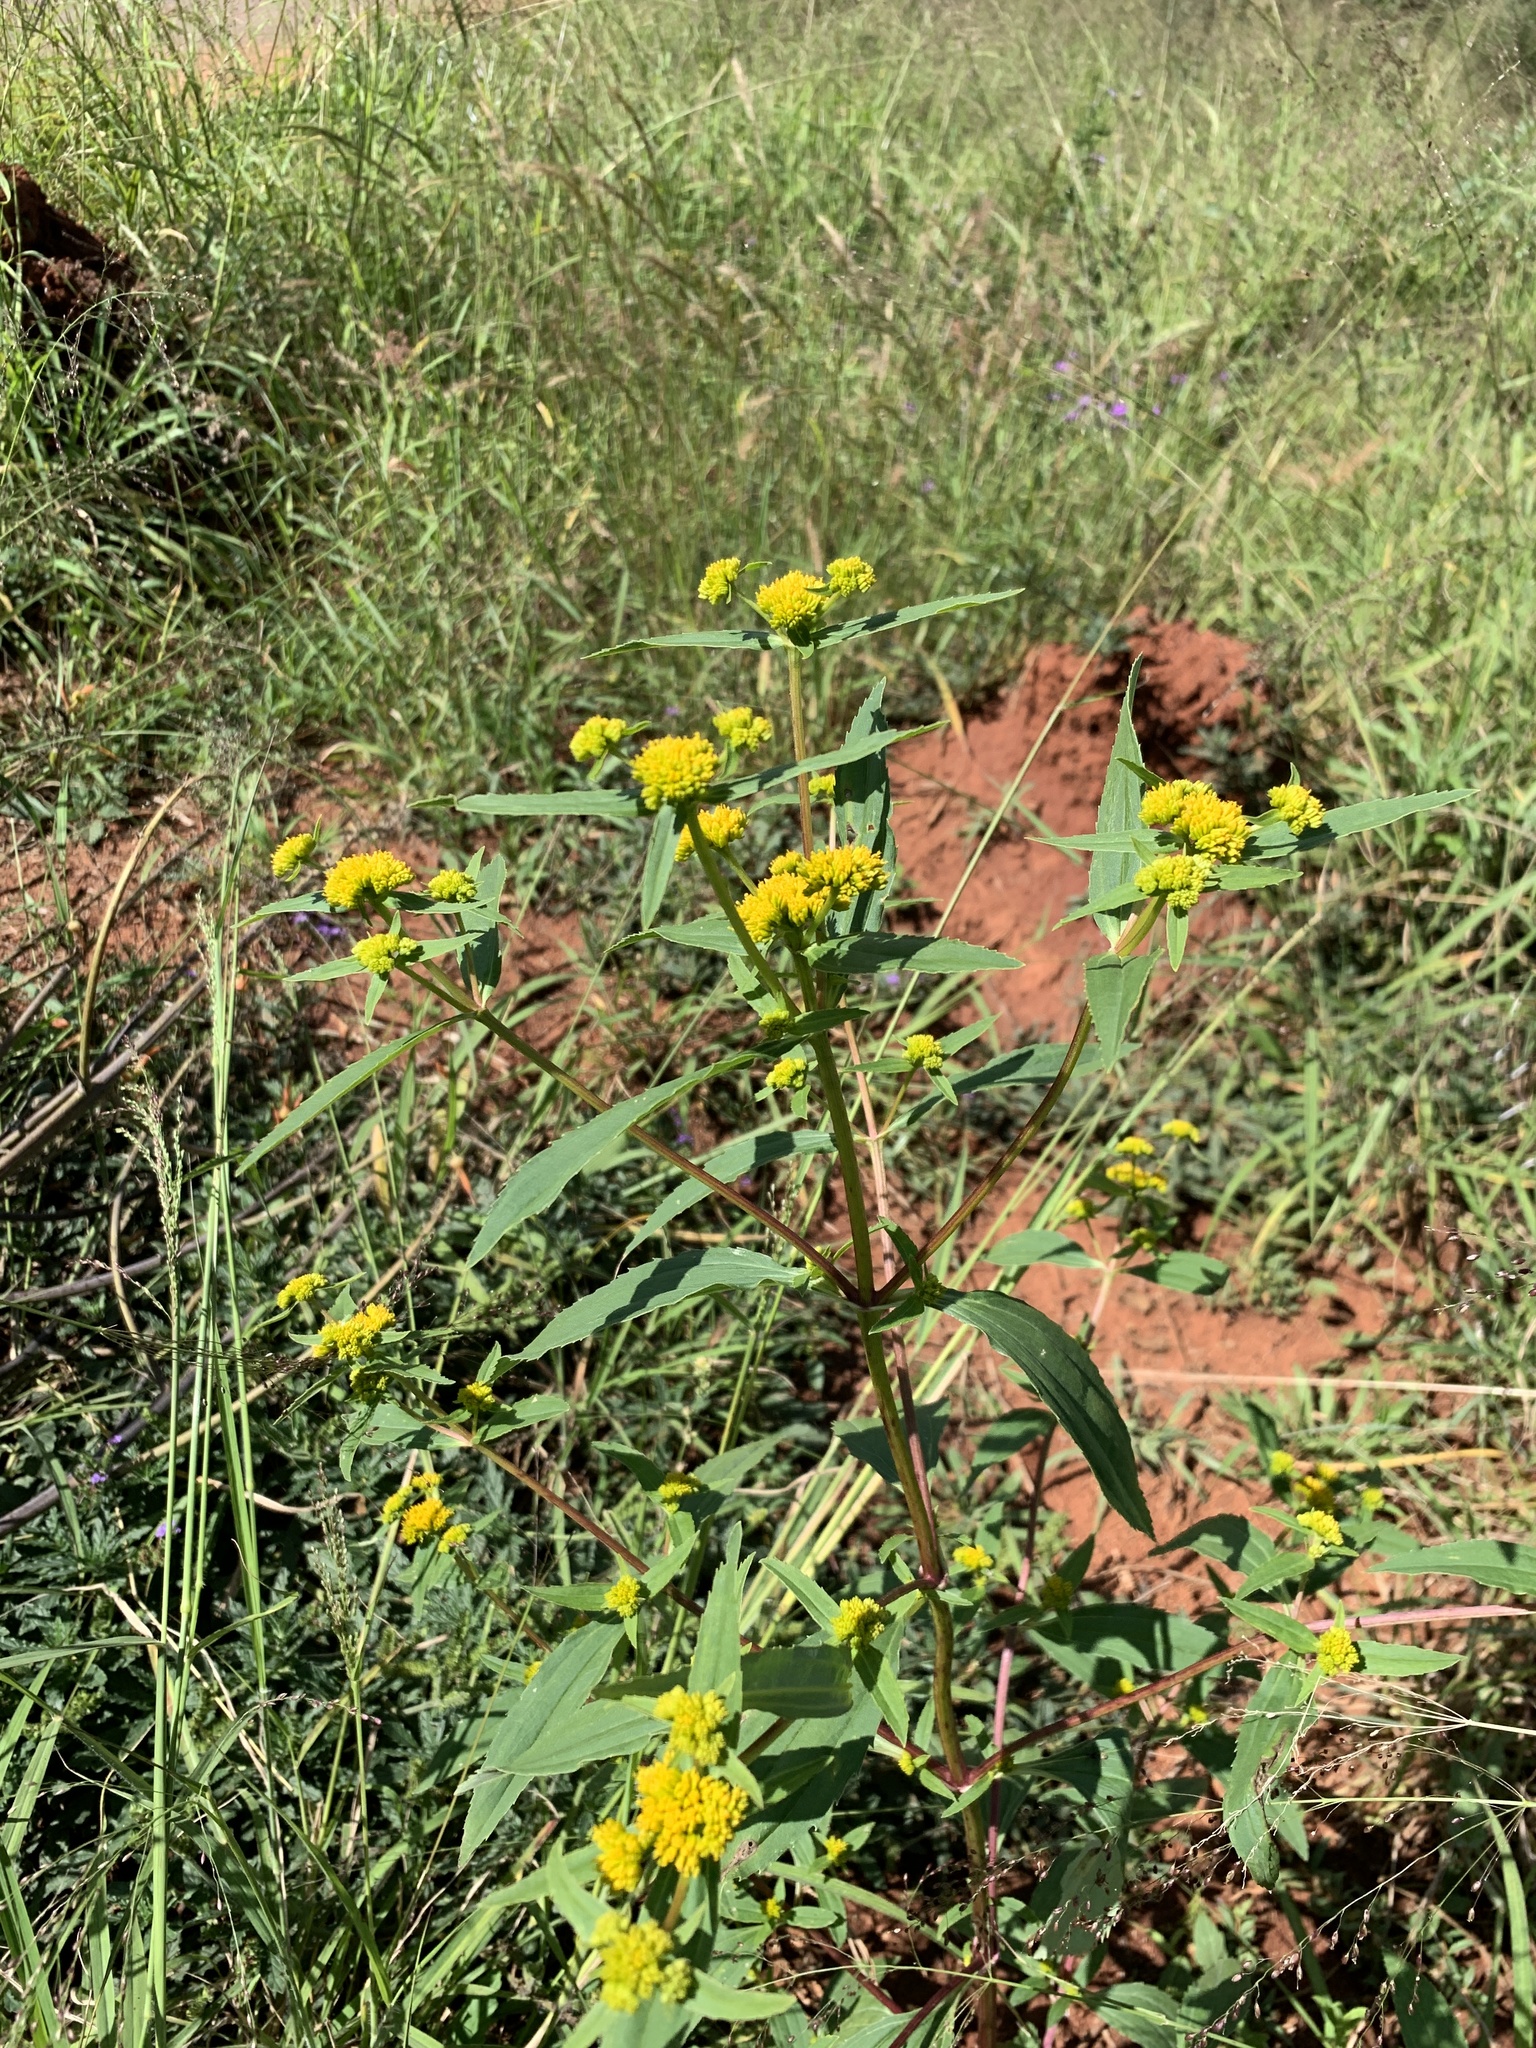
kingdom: Plantae
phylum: Tracheophyta
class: Magnoliopsida
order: Asterales
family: Asteraceae
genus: Flaveria
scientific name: Flaveria bidentis
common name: Coastal plain yellowtops
